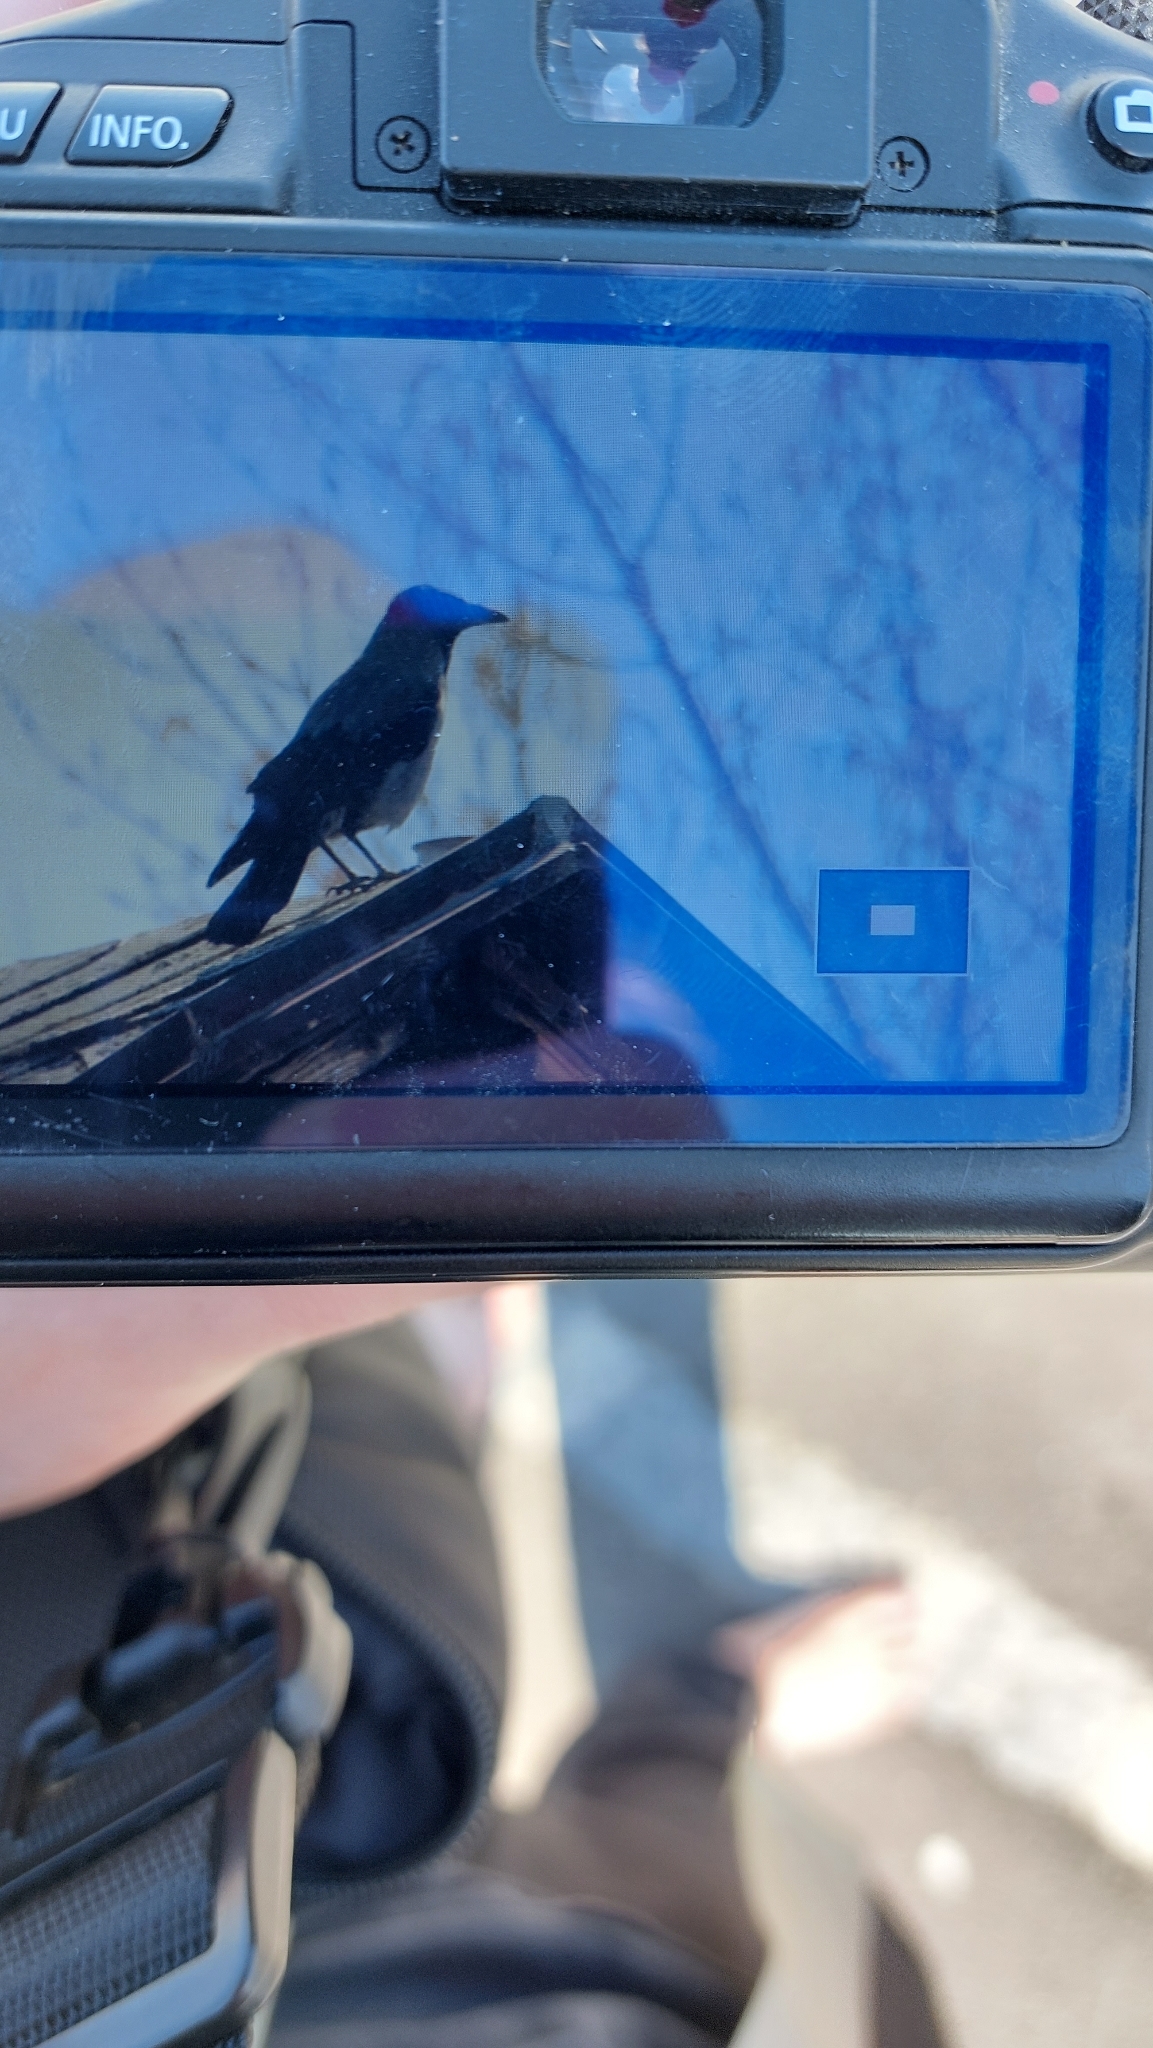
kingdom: Animalia
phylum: Chordata
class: Aves
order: Passeriformes
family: Corvidae
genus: Corvus
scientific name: Corvus cornix
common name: Hooded crow
